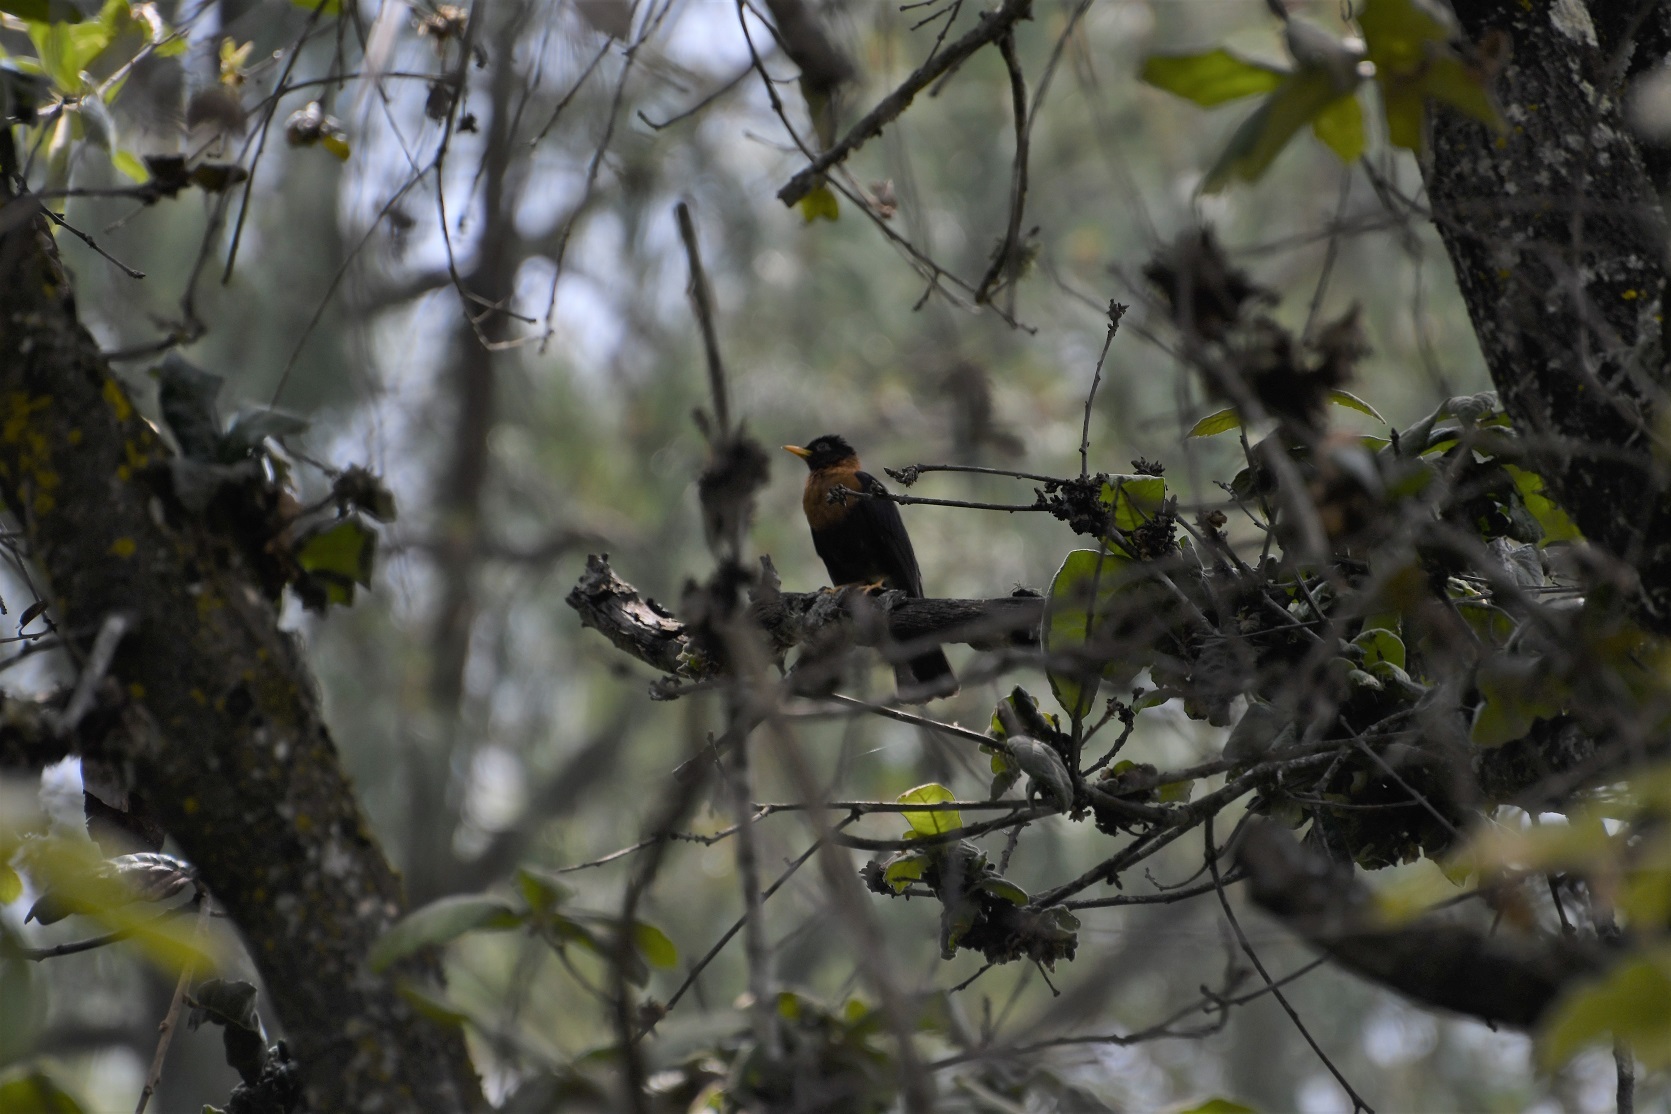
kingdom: Animalia
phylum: Chordata
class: Aves
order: Passeriformes
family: Turdidae
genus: Turdus
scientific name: Turdus rufitorques
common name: Rufous-collared thrush
